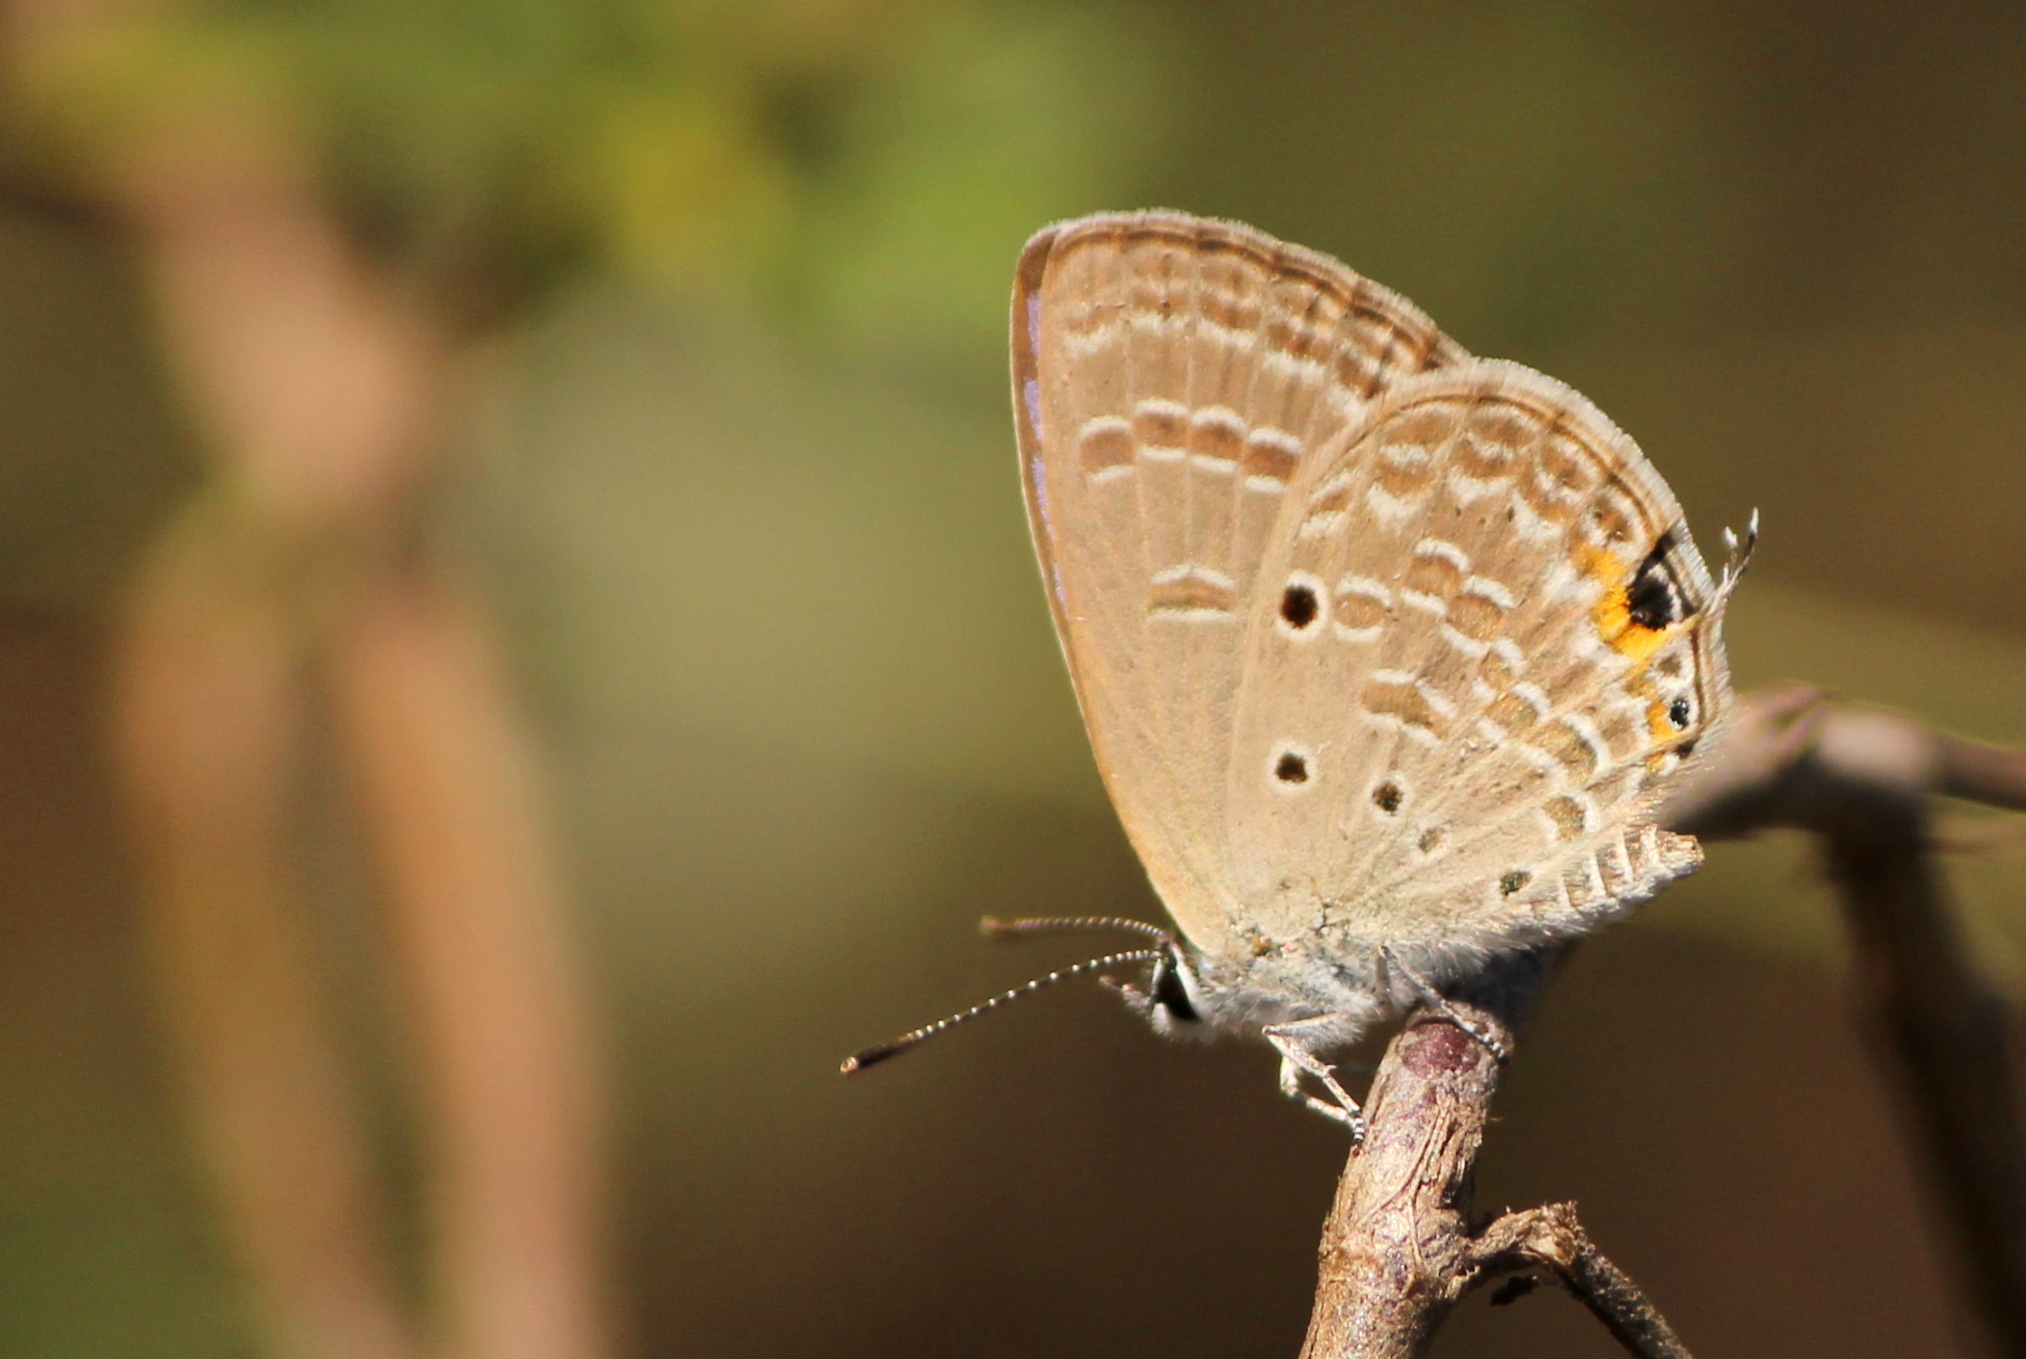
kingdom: Animalia
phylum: Arthropoda
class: Insecta
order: Lepidoptera
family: Lycaenidae
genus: Luthrodes
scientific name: Luthrodes pandava
